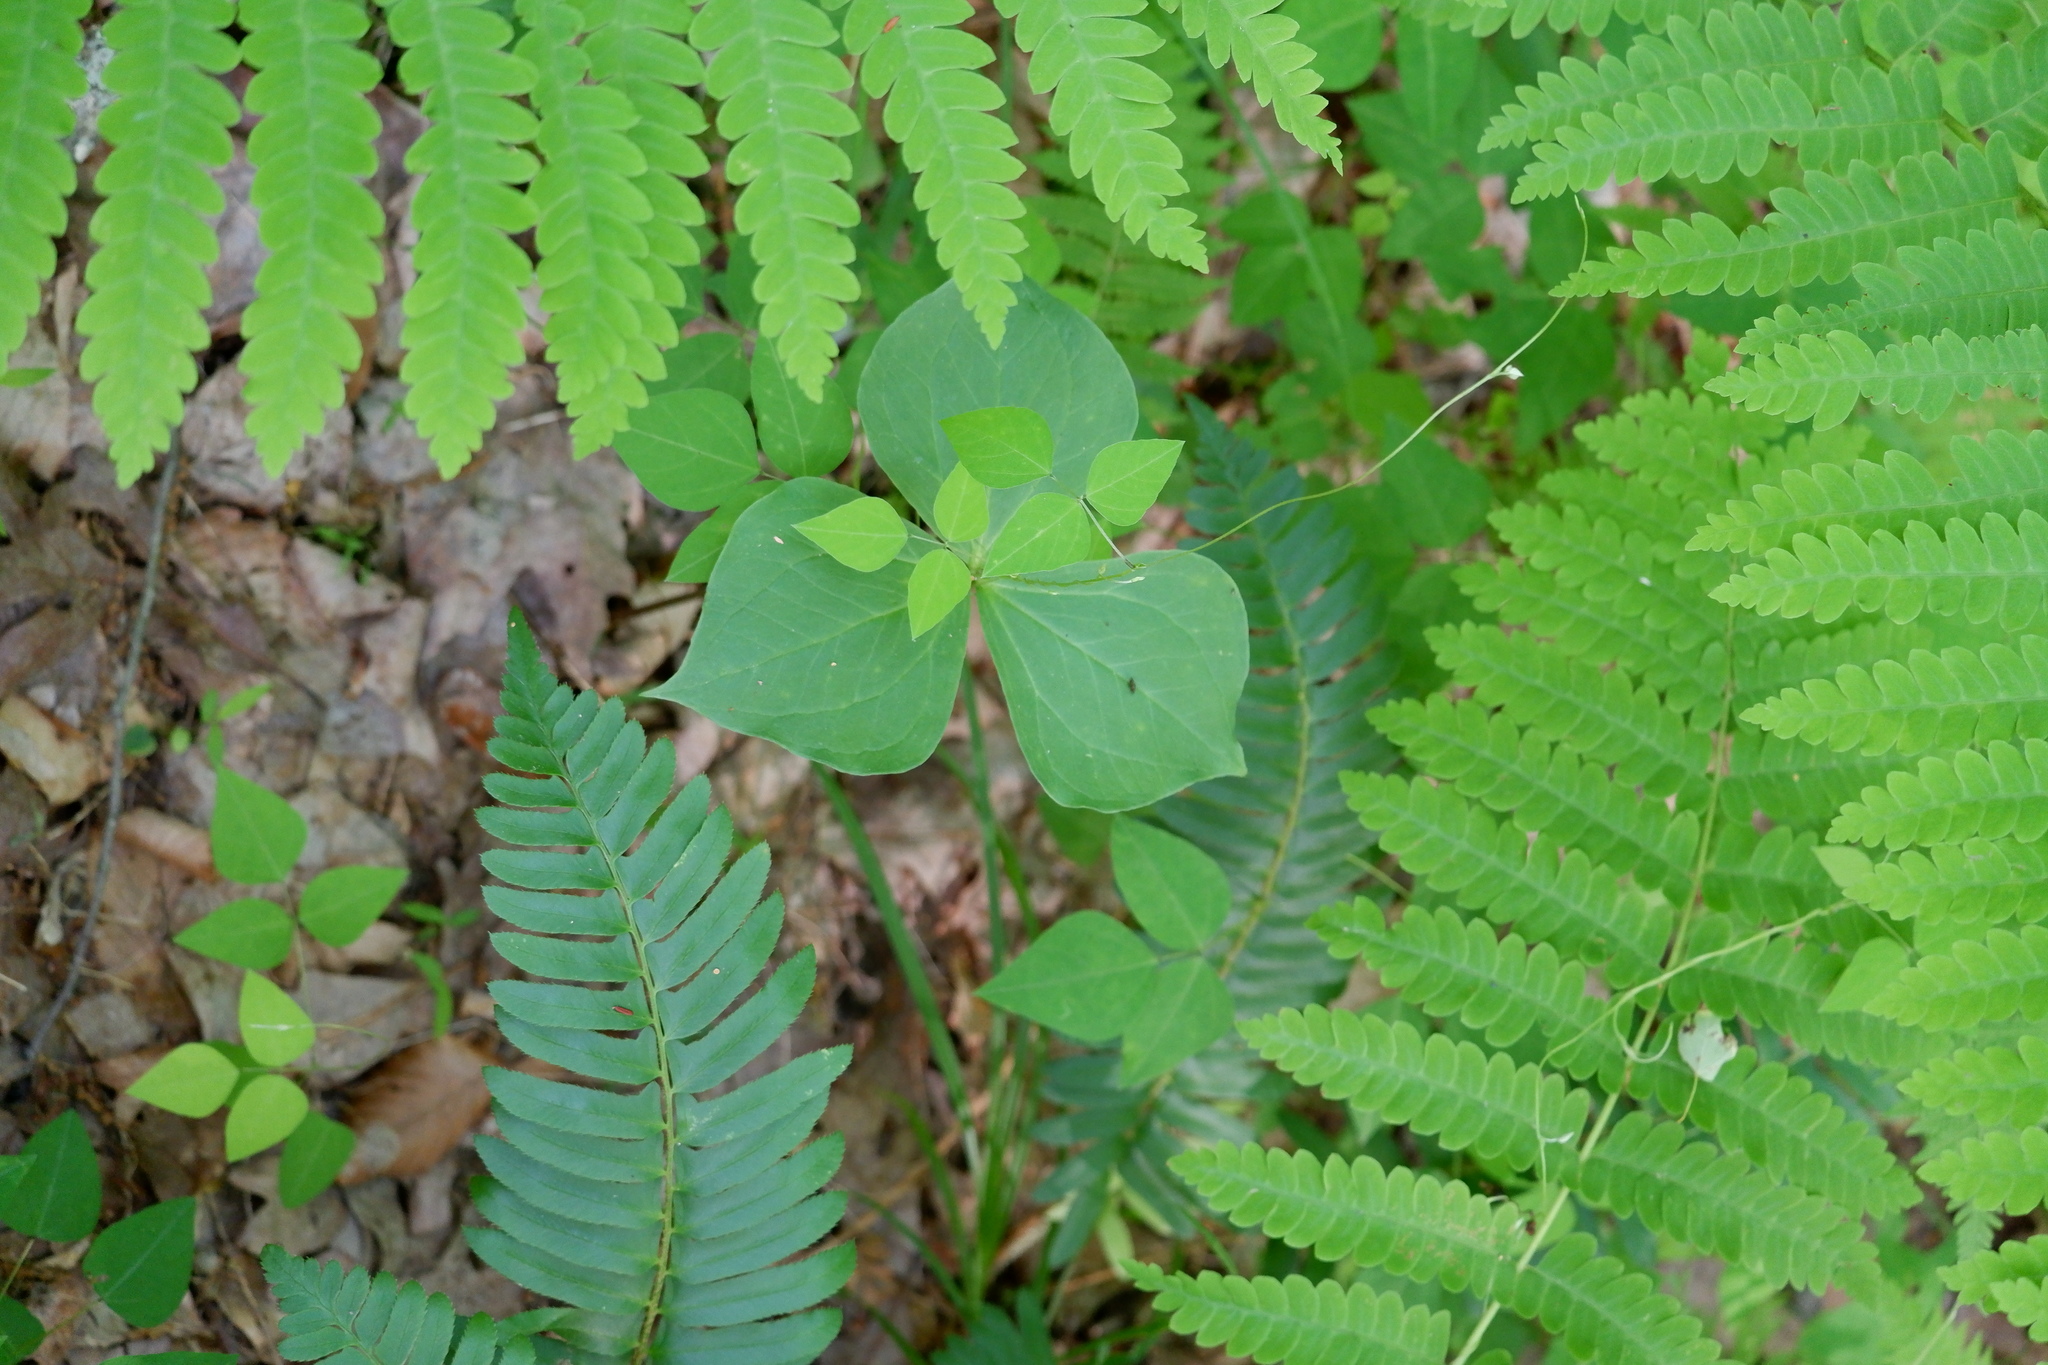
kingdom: Plantae
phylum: Tracheophyta
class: Liliopsida
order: Liliales
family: Melanthiaceae
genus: Trillium
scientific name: Trillium
